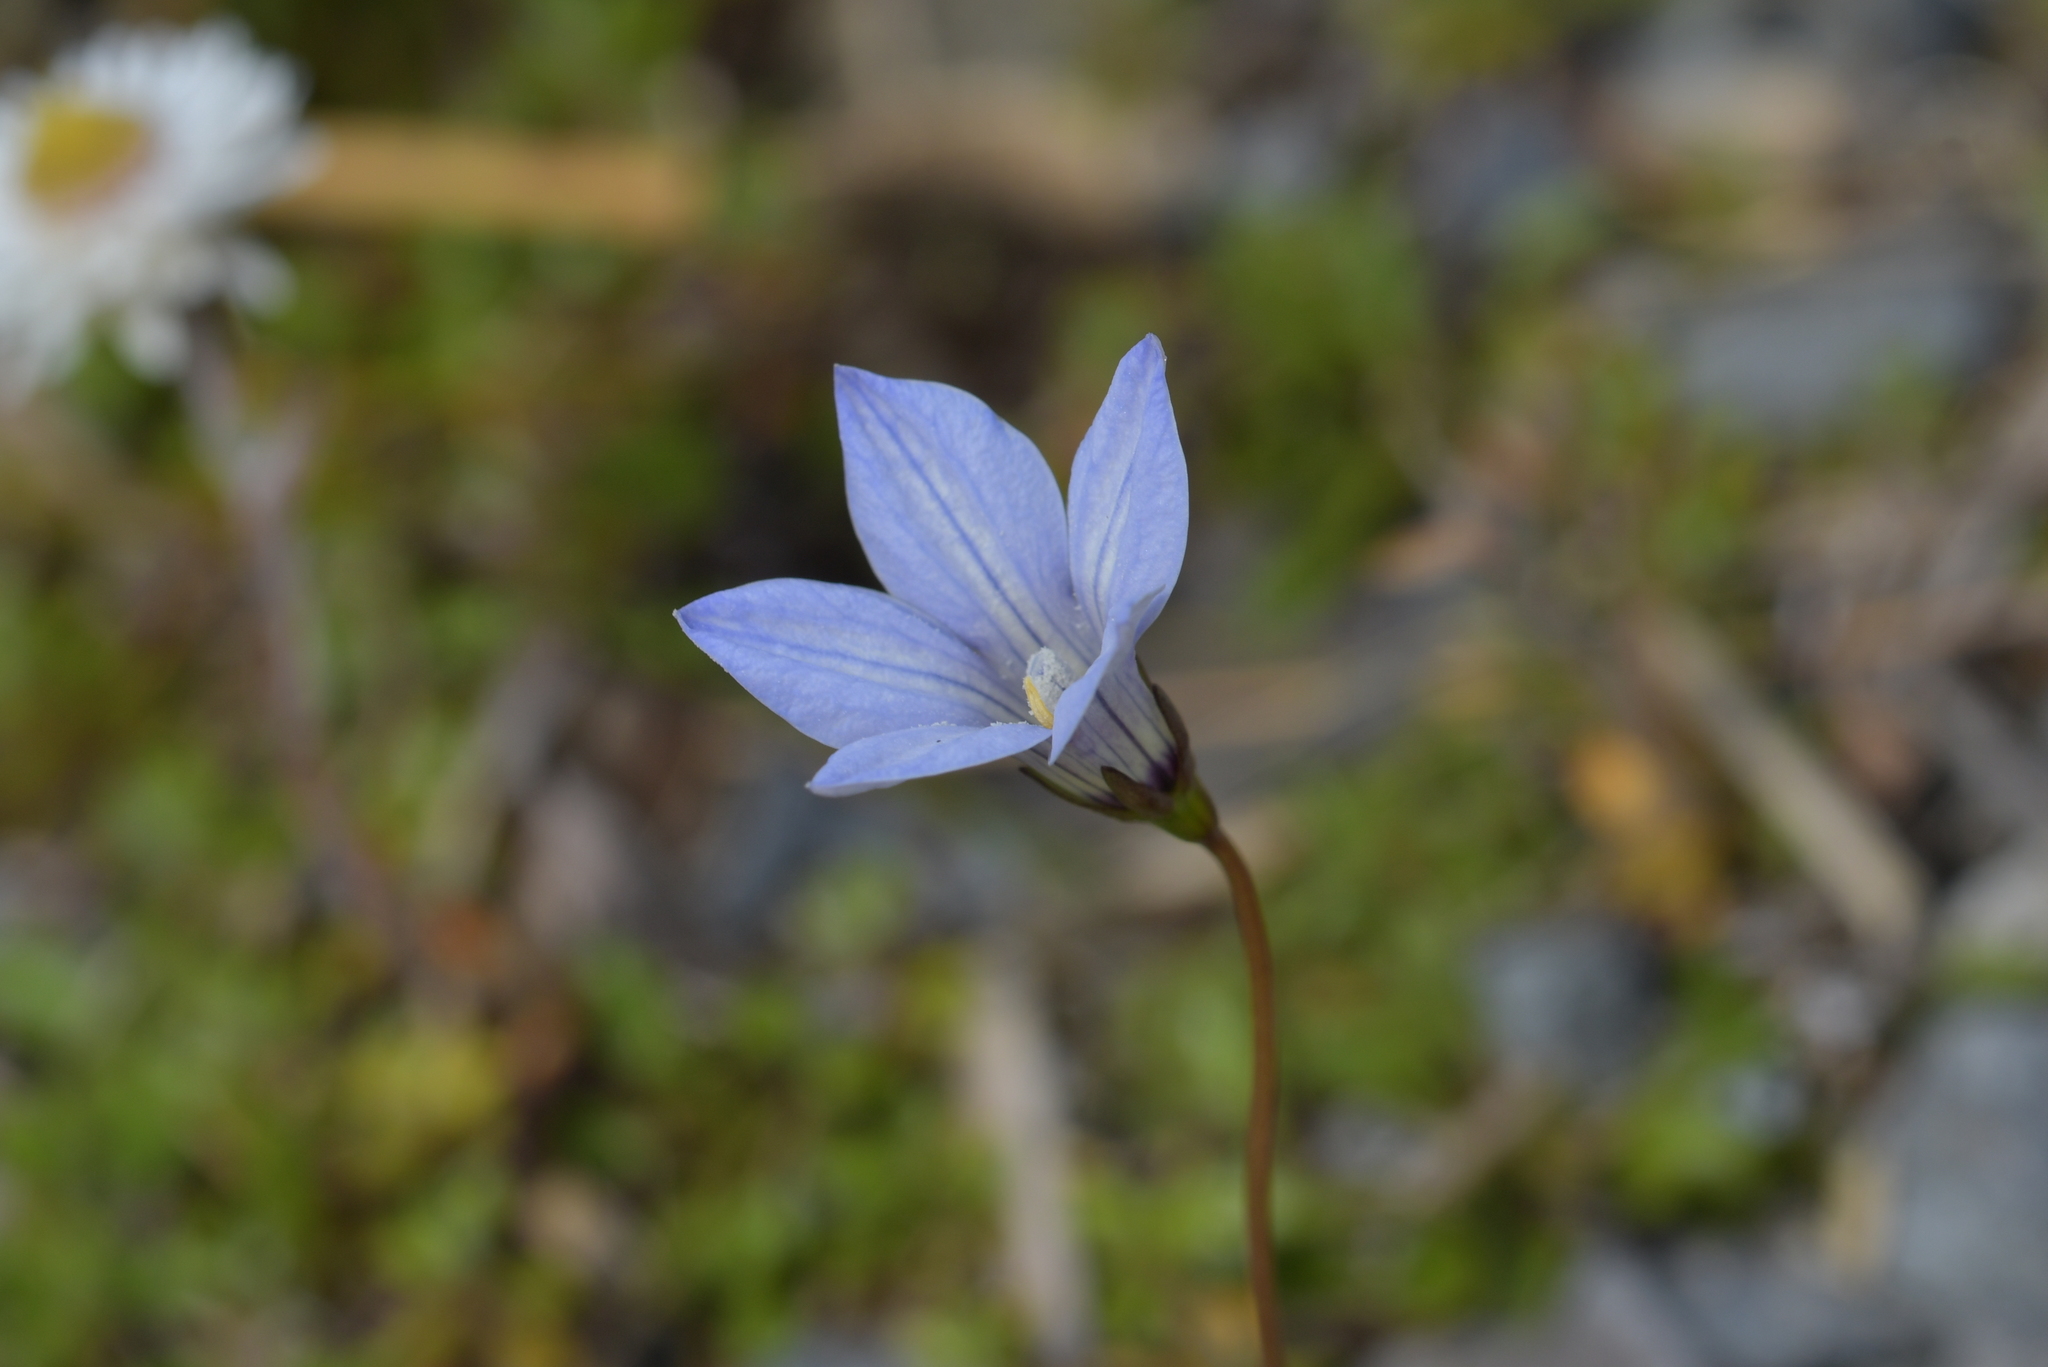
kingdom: Plantae
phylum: Tracheophyta
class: Magnoliopsida
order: Asterales
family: Campanulaceae
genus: Wahlenbergia
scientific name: Wahlenbergia albomarginata
